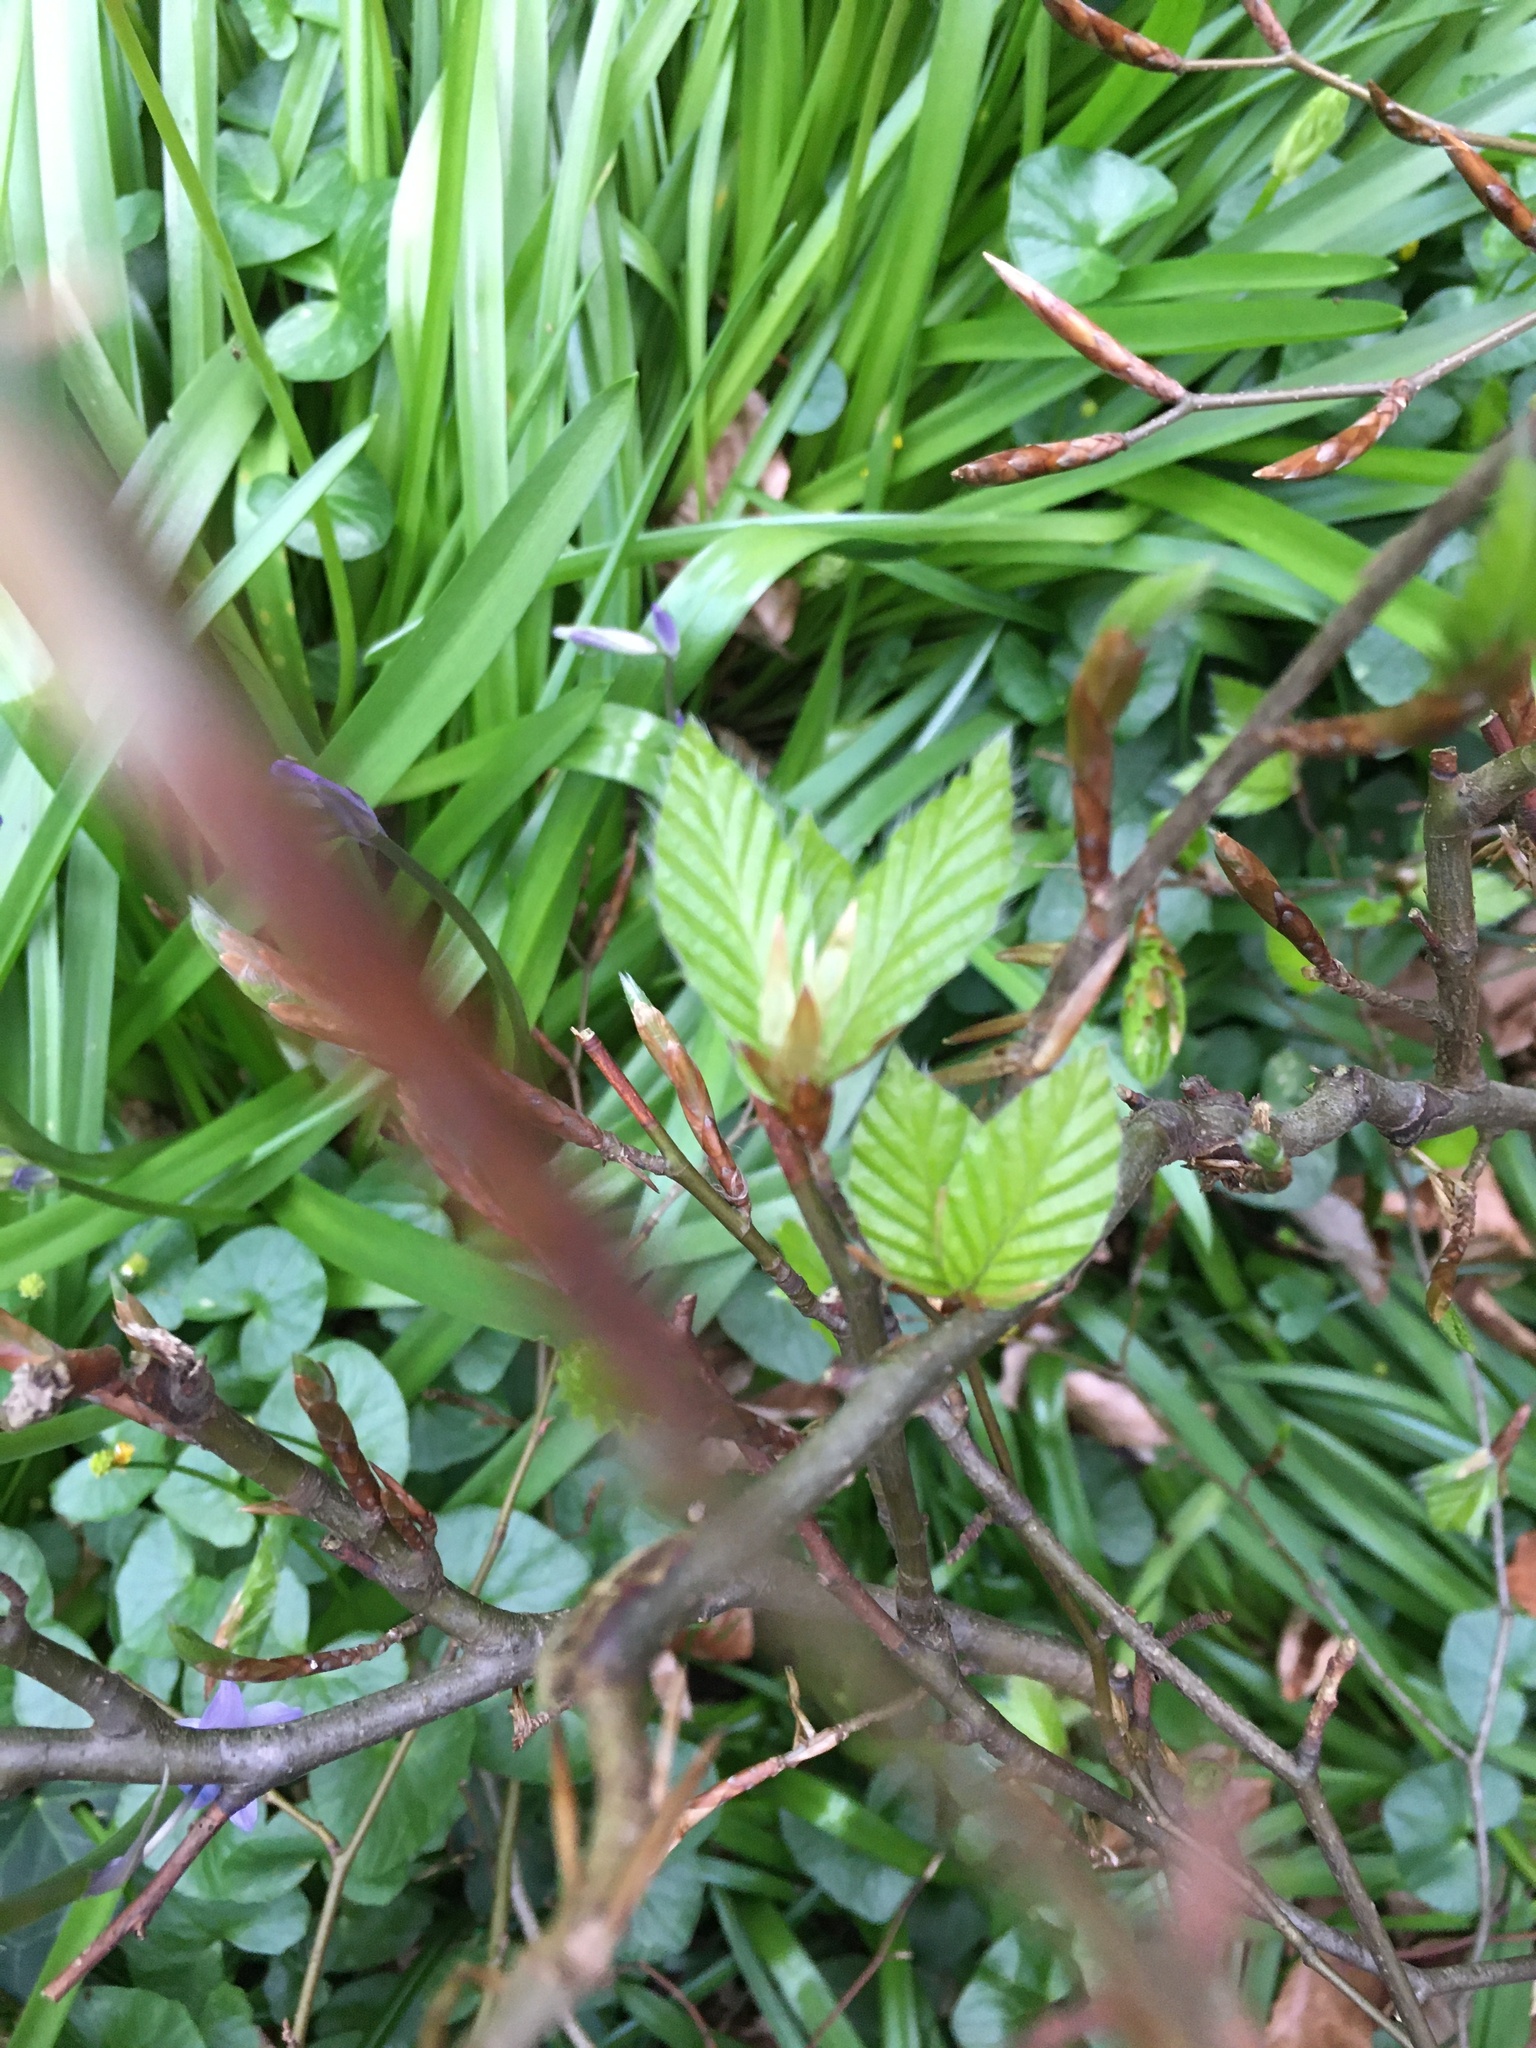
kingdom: Plantae
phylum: Tracheophyta
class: Magnoliopsida
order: Fagales
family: Fagaceae
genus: Fagus
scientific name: Fagus sylvatica
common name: Beech
